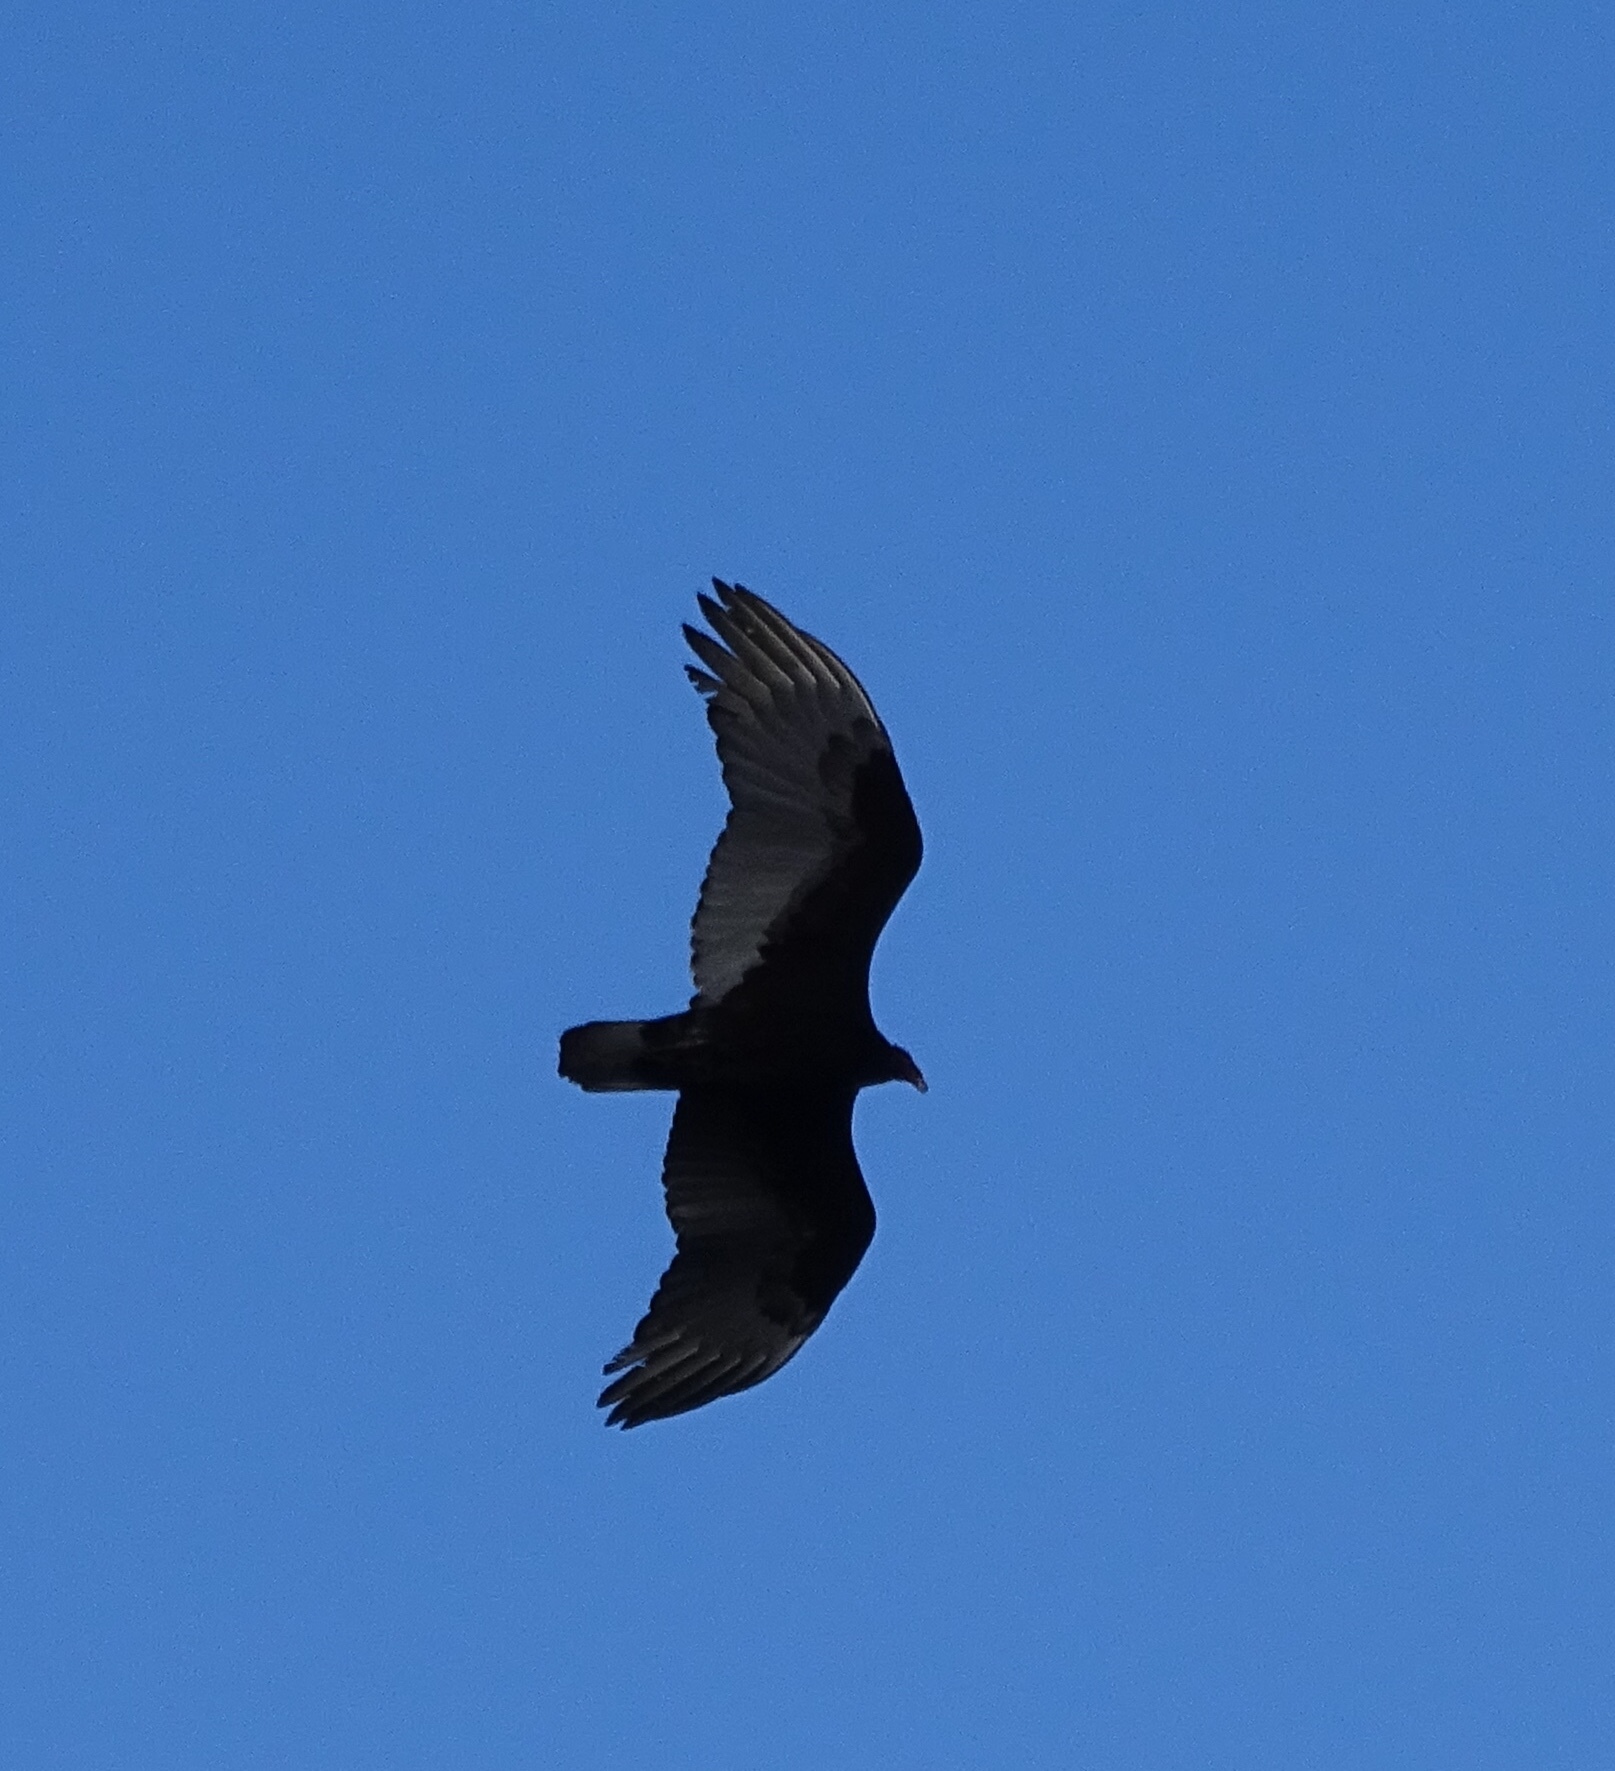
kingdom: Animalia
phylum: Chordata
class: Aves
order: Accipitriformes
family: Cathartidae
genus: Cathartes
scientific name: Cathartes aura
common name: Turkey vulture
